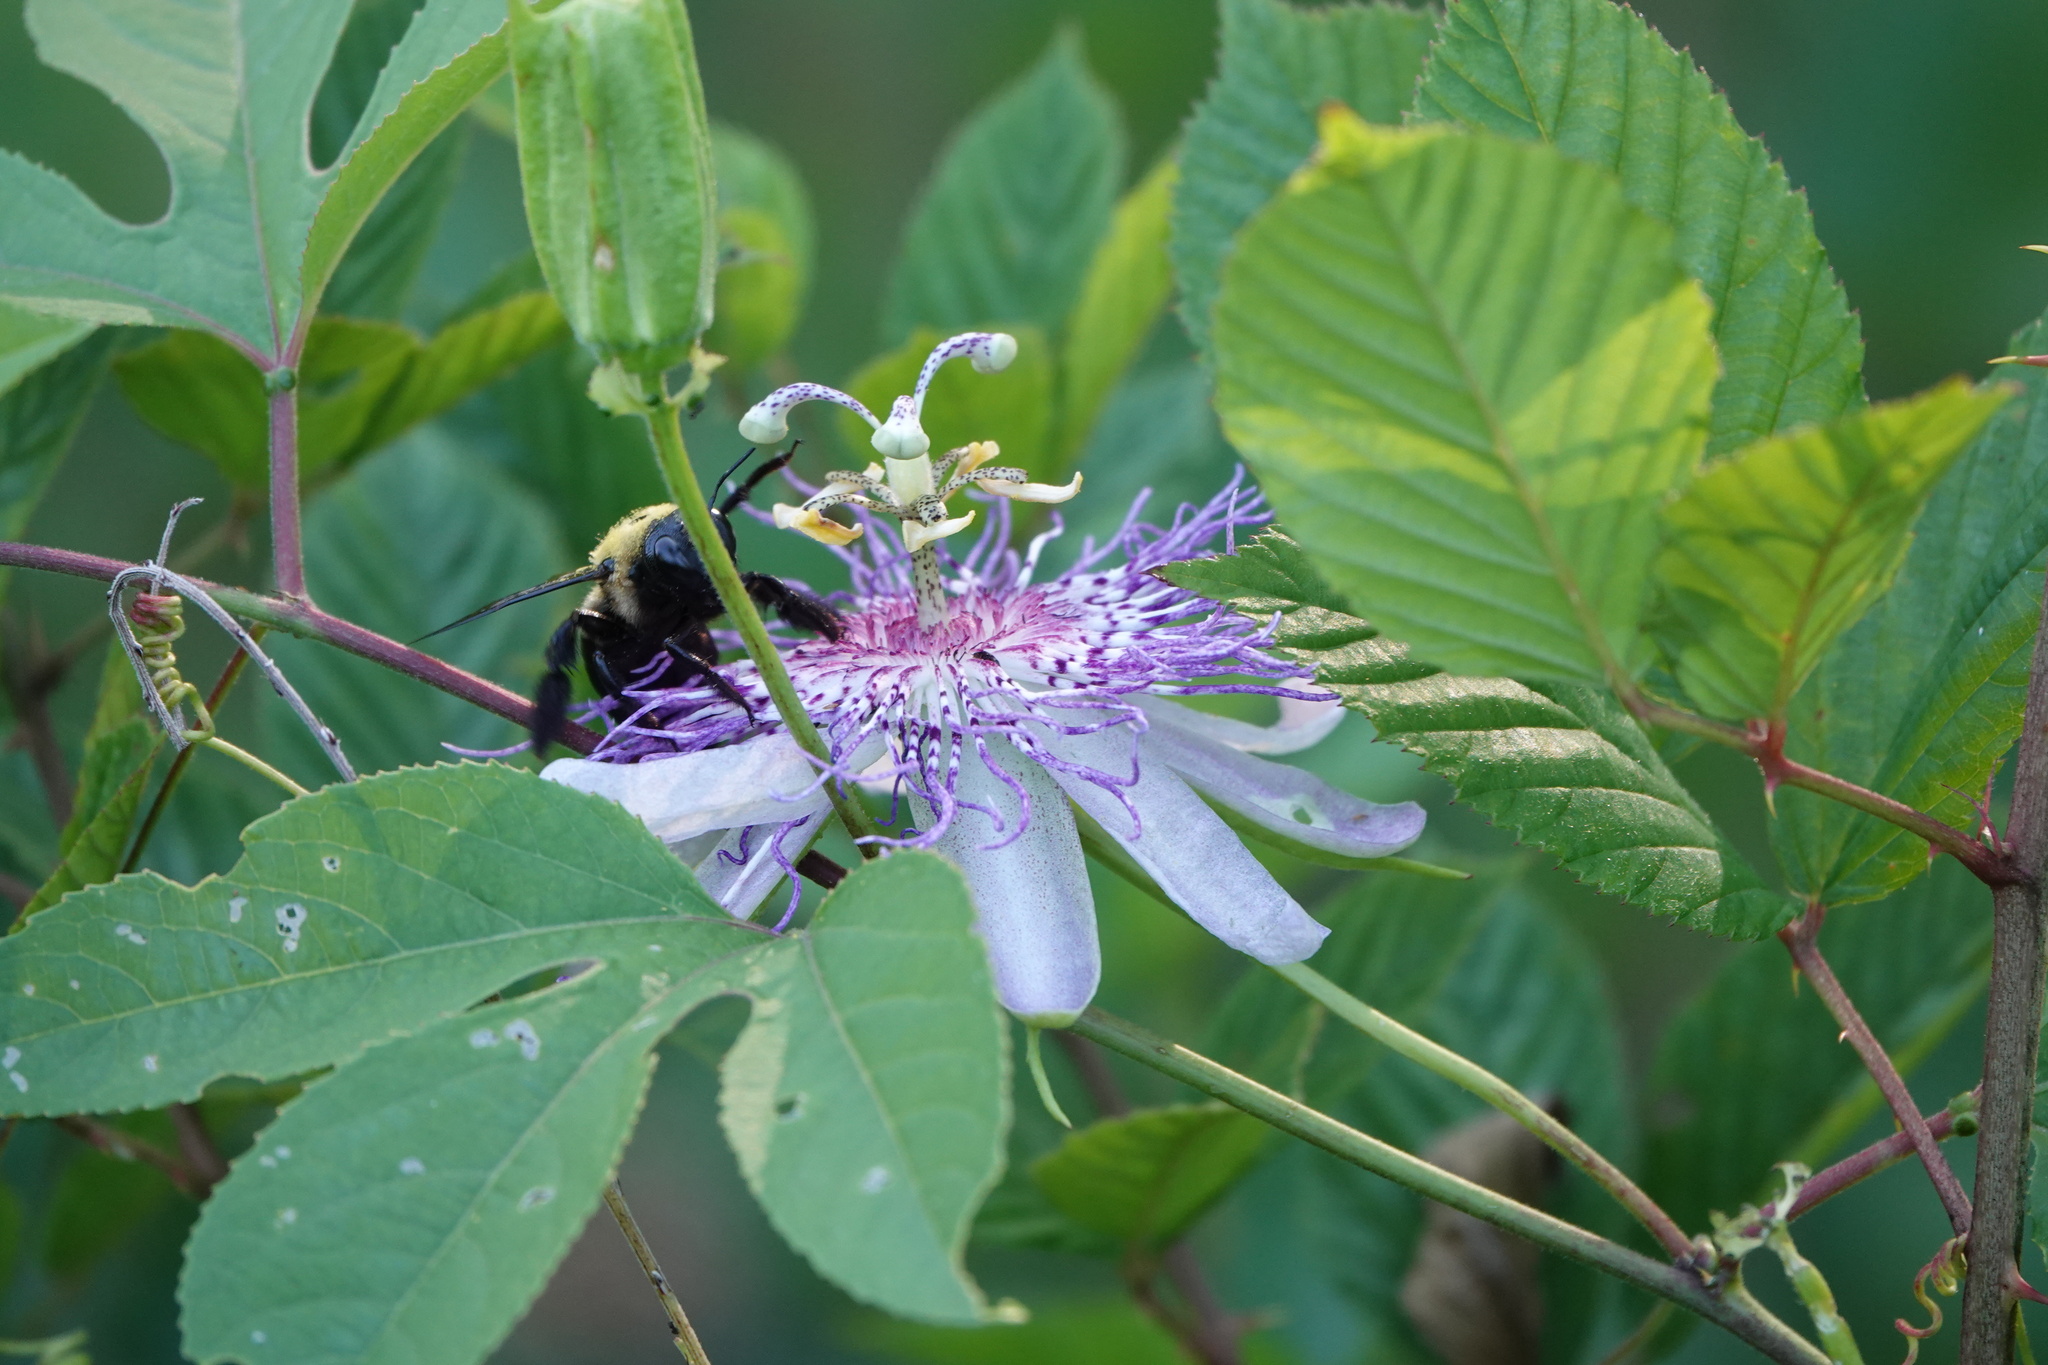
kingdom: Animalia
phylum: Arthropoda
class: Insecta
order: Hymenoptera
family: Apidae
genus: Xylocopa
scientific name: Xylocopa virginica
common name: Carpenter bee
